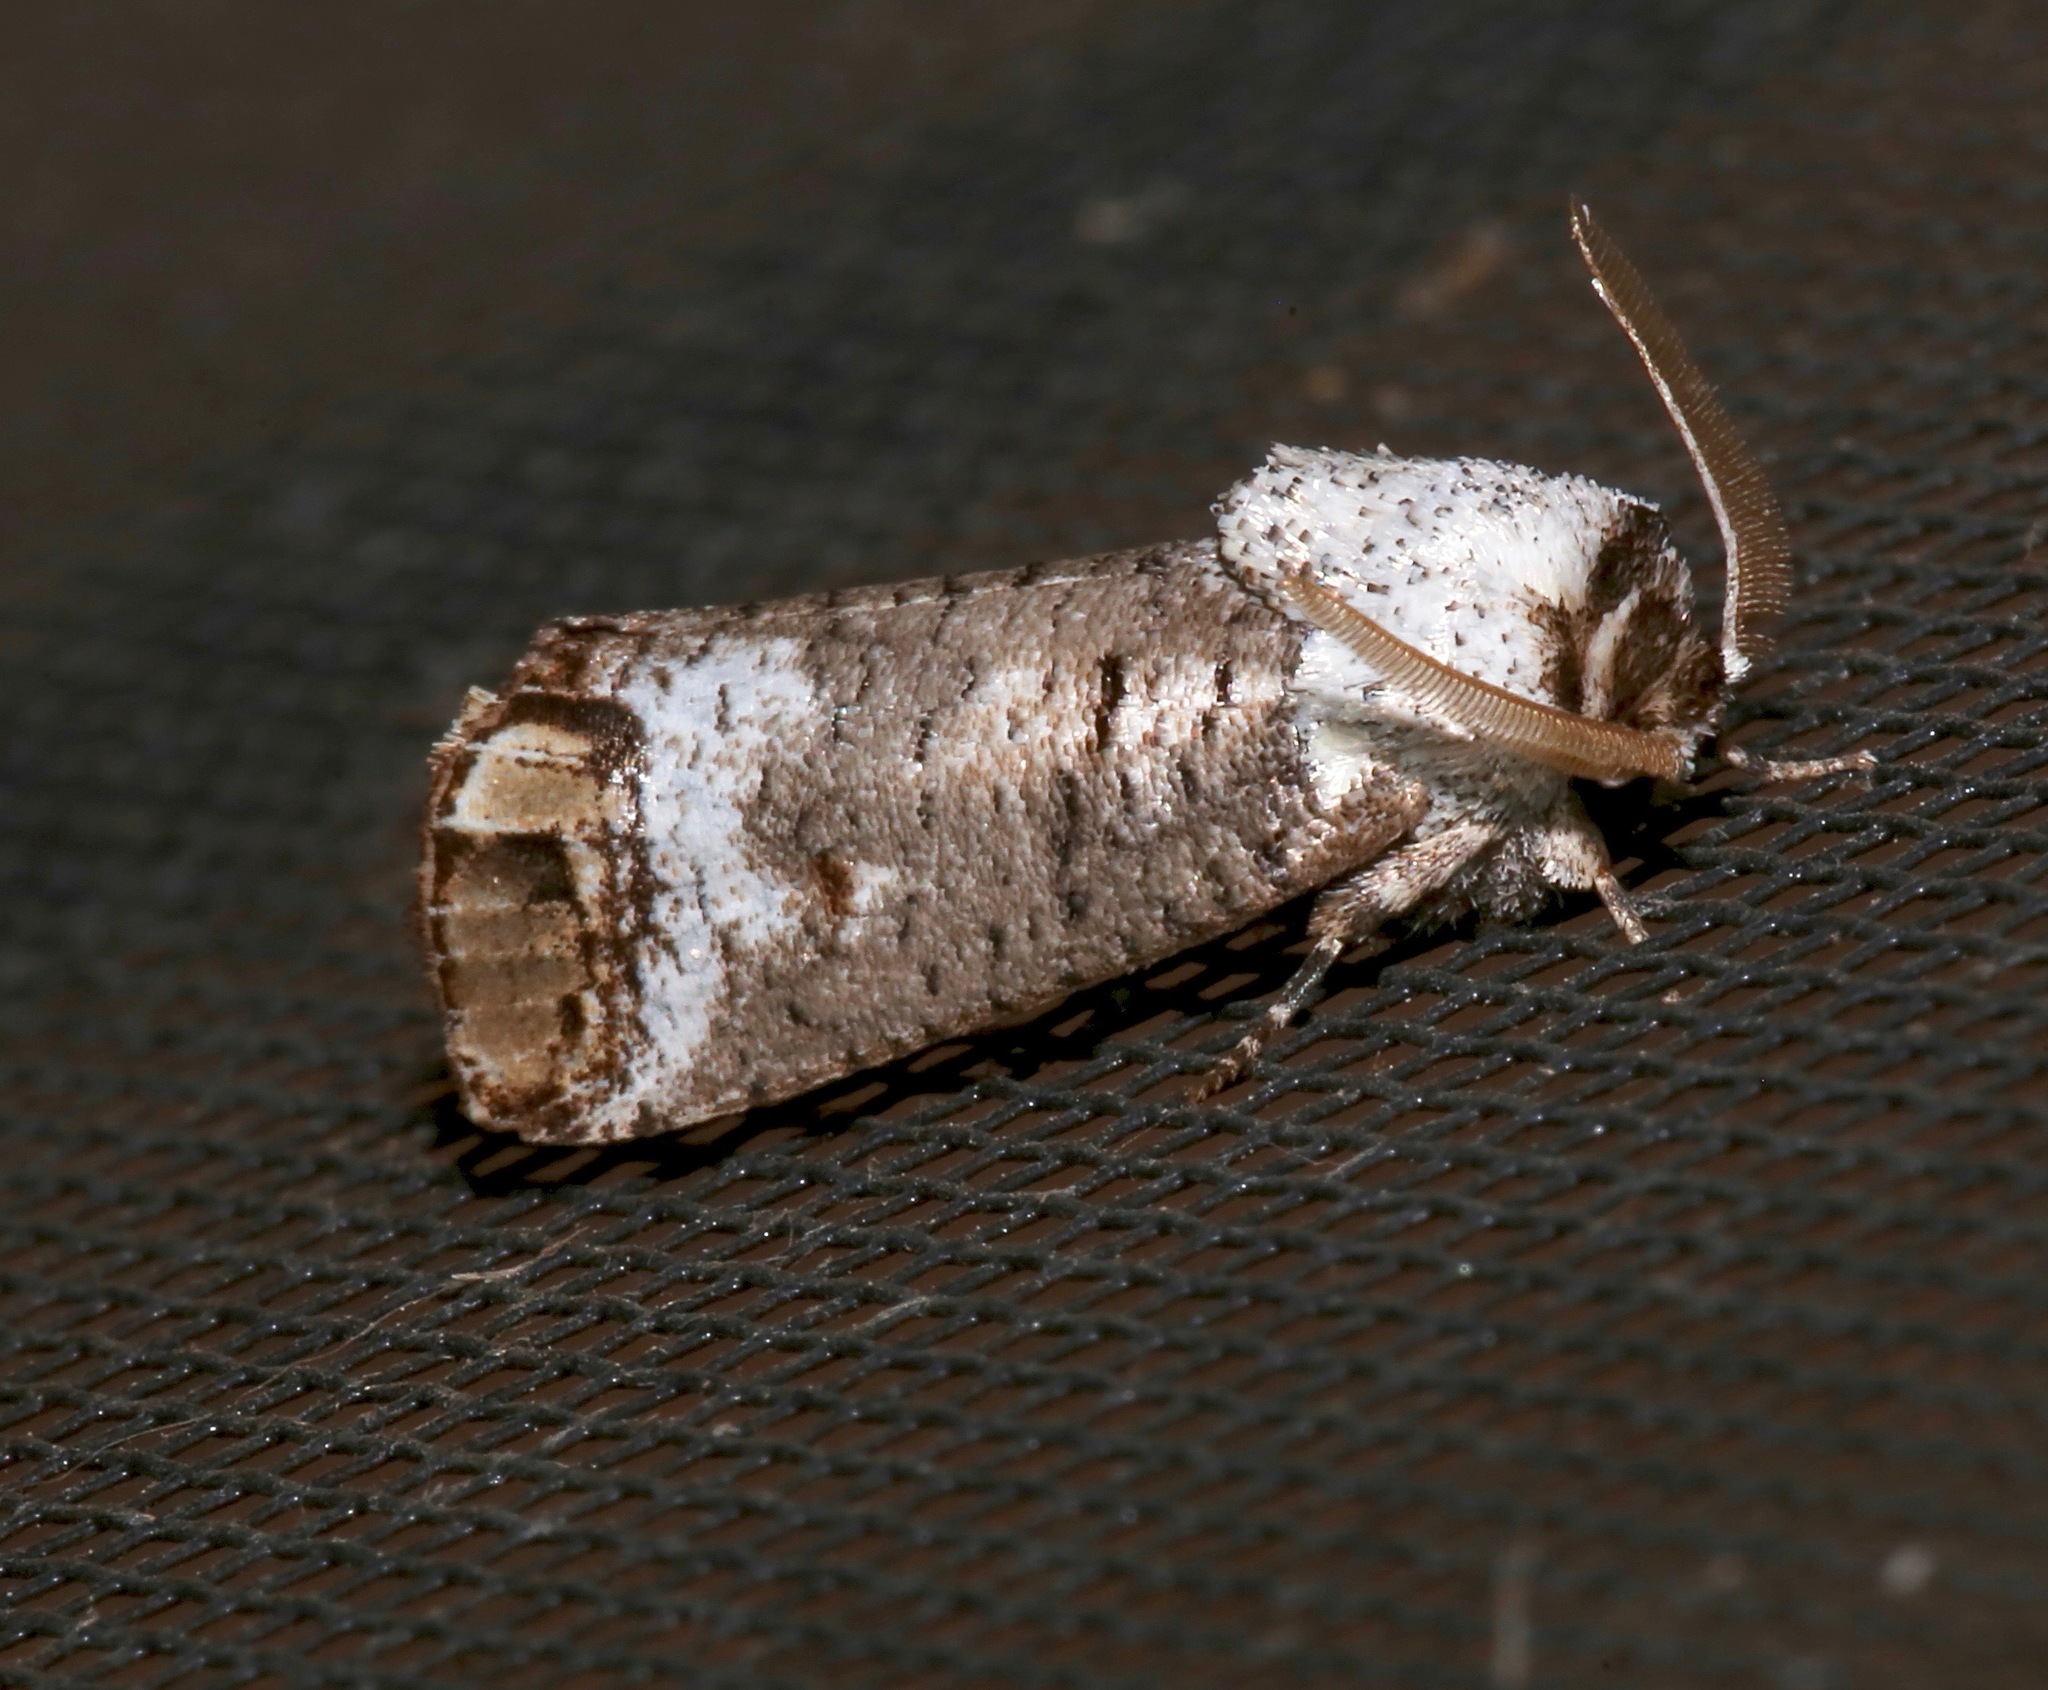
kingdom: Animalia
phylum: Arthropoda
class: Insecta
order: Lepidoptera
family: Cossidae
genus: Cossula
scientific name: Cossula magnifica
